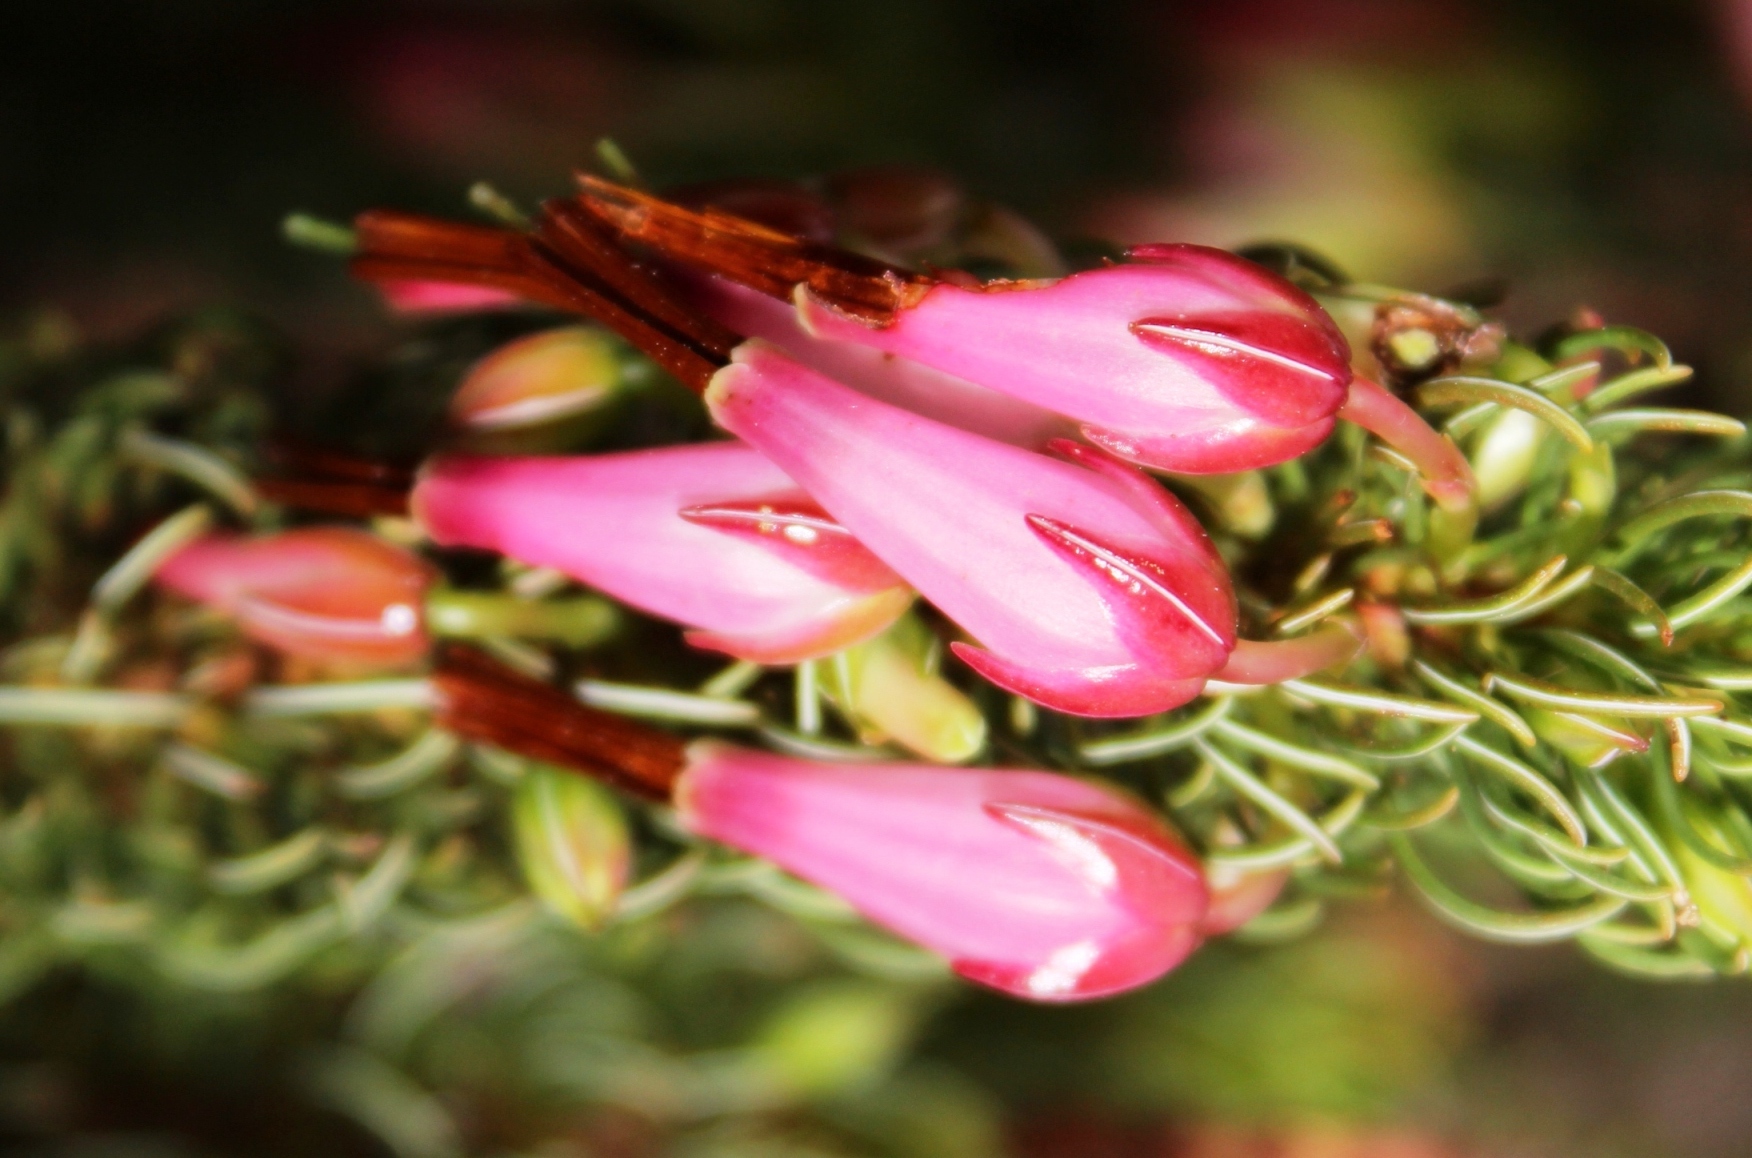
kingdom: Plantae
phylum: Tracheophyta
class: Magnoliopsida
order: Ericales
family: Ericaceae
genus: Erica
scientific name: Erica plukenetii
